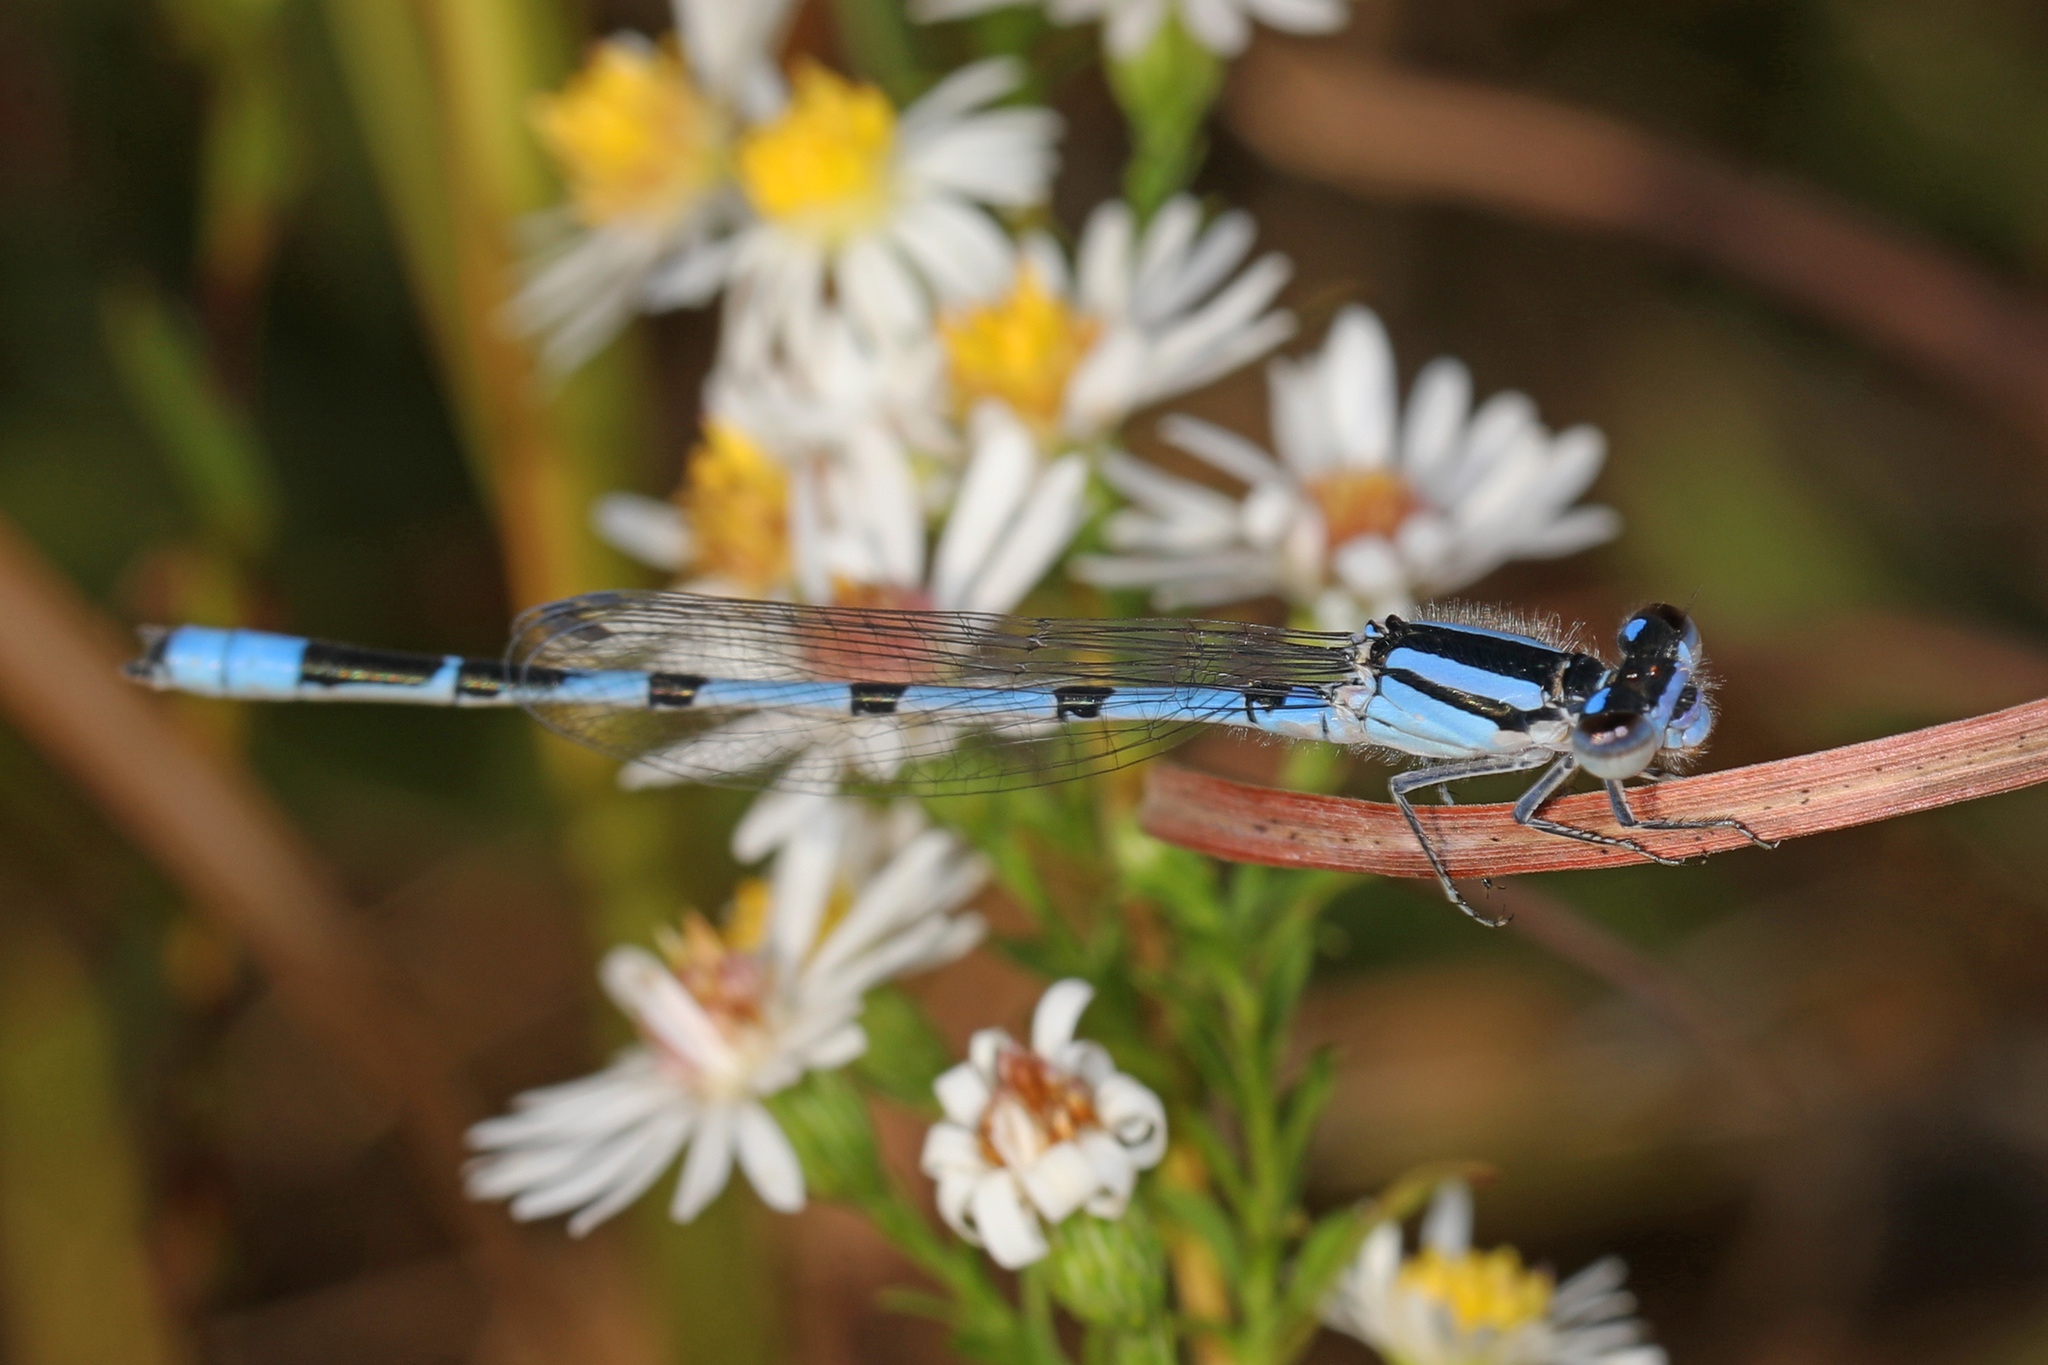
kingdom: Animalia
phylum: Arthropoda
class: Insecta
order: Odonata
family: Coenagrionidae
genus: Enallagma
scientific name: Enallagma civile
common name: Damselfly
